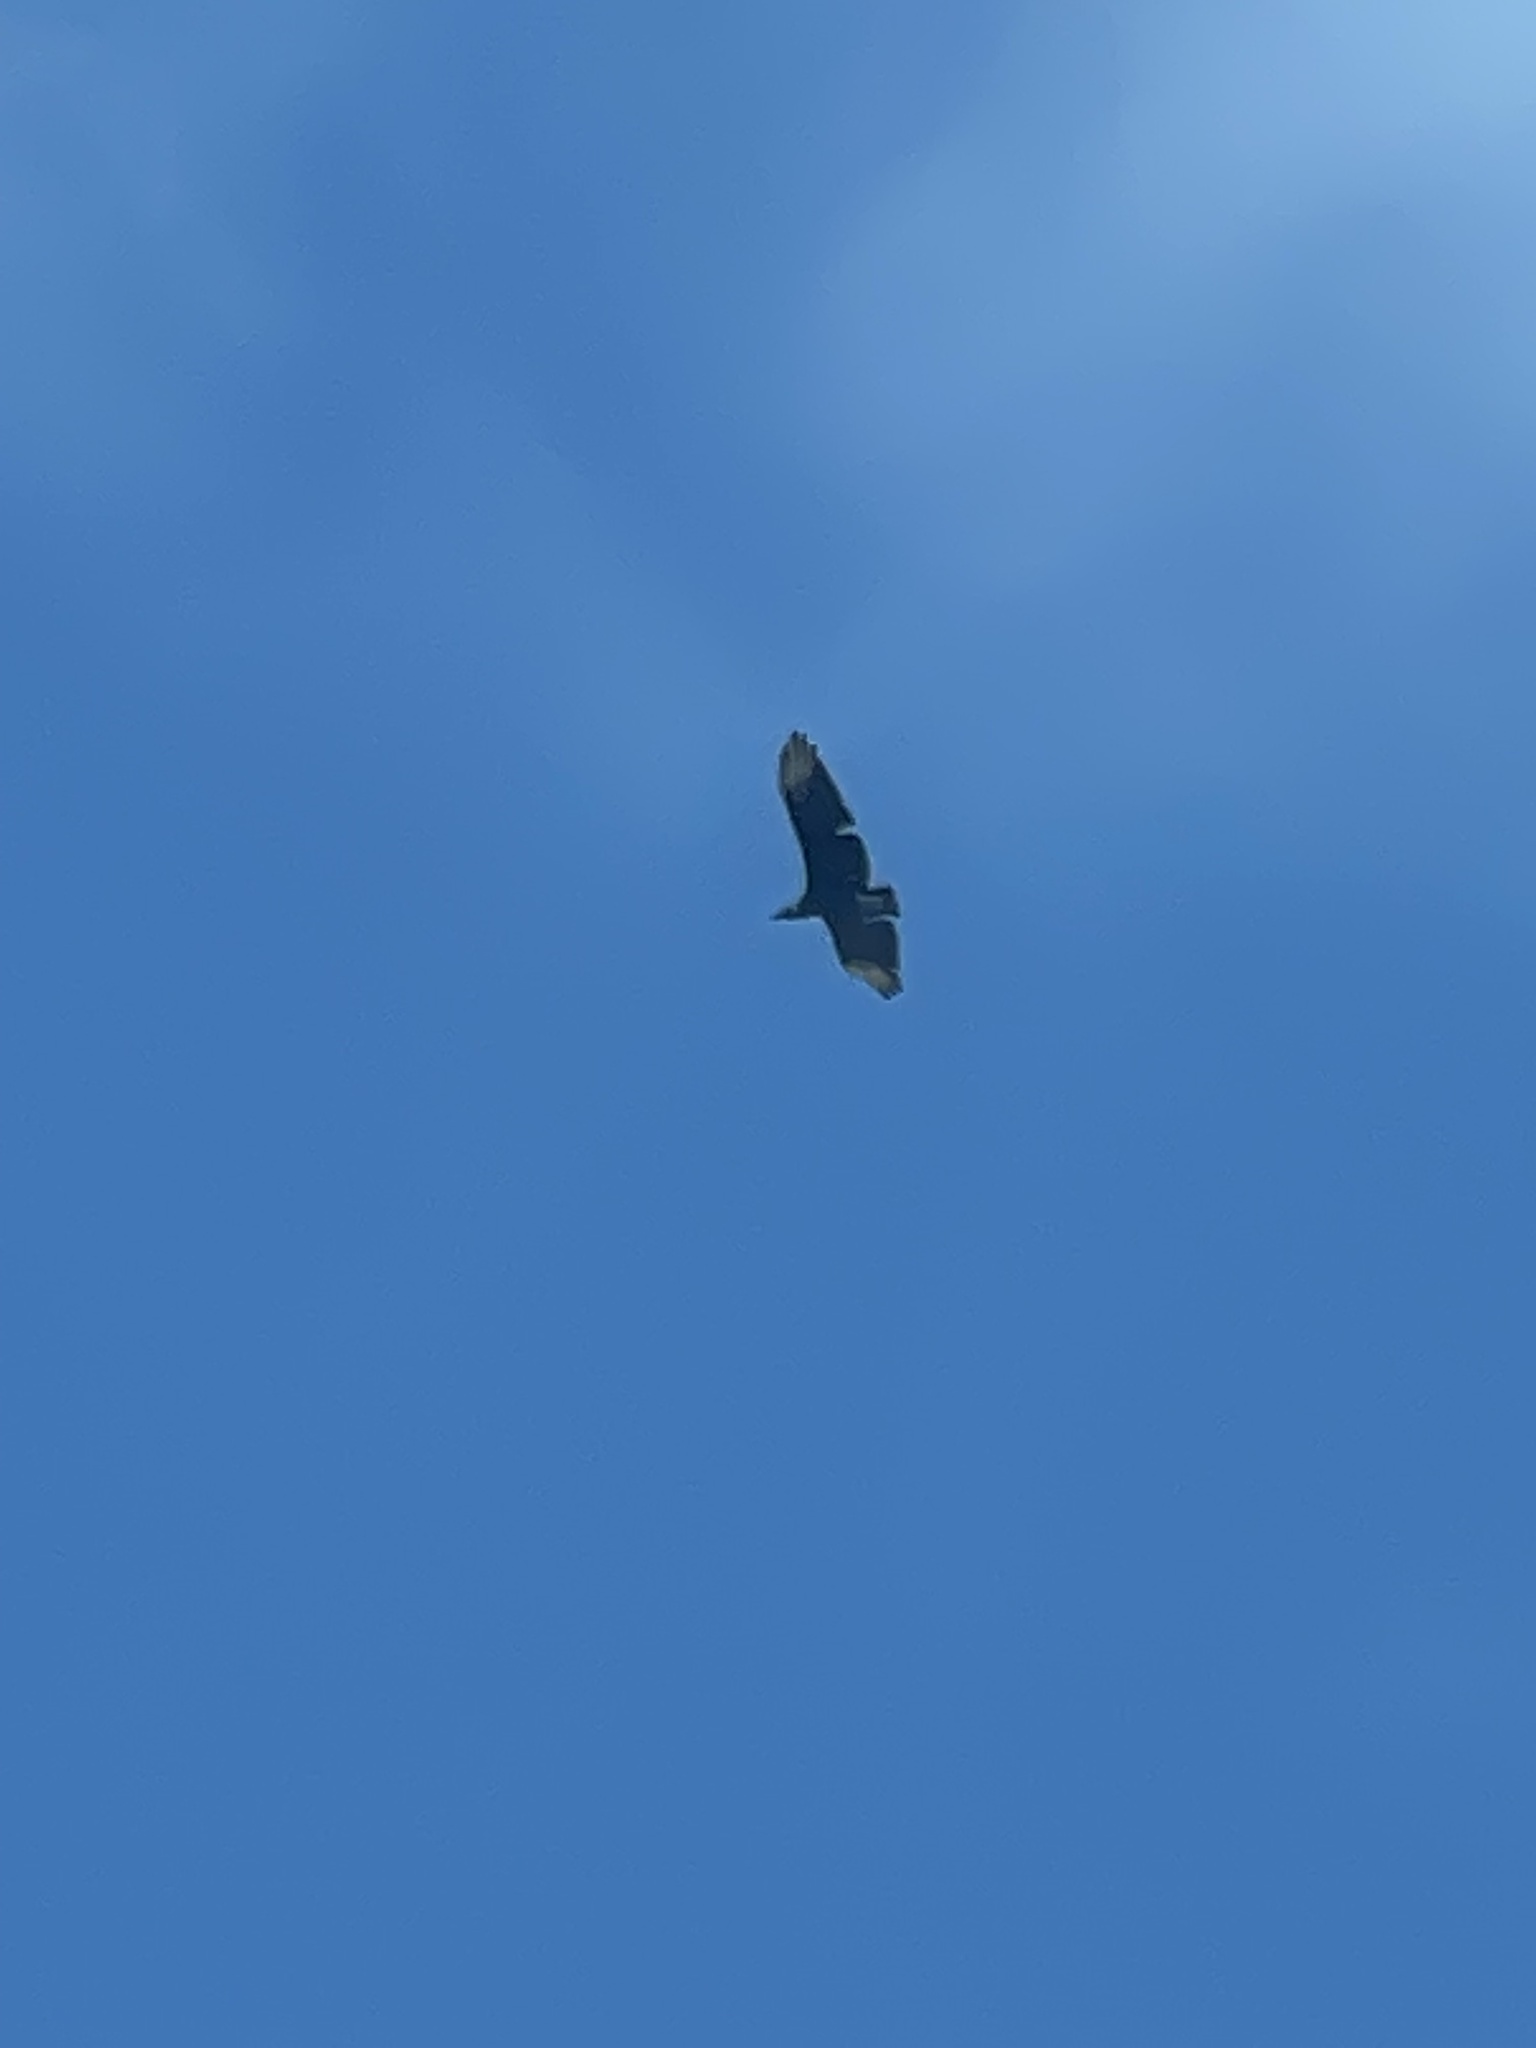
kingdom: Animalia
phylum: Chordata
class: Aves
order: Accipitriformes
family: Cathartidae
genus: Coragyps
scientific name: Coragyps atratus
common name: Black vulture
